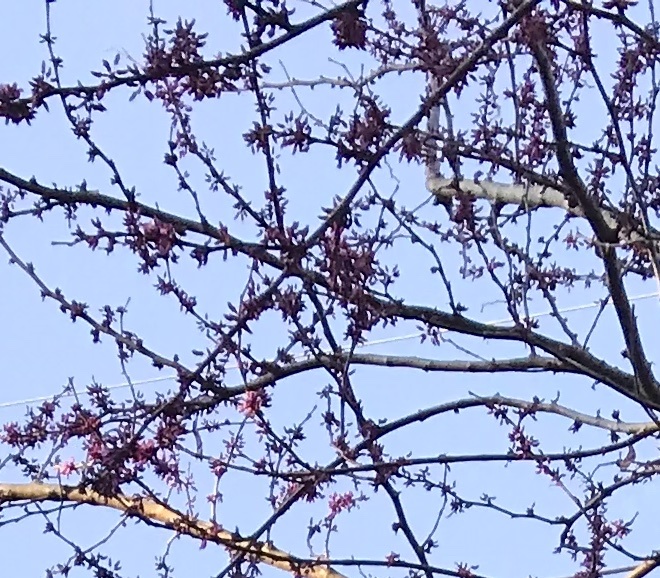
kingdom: Plantae
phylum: Tracheophyta
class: Magnoliopsida
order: Fabales
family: Fabaceae
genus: Cercis
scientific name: Cercis canadensis
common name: Eastern redbud
